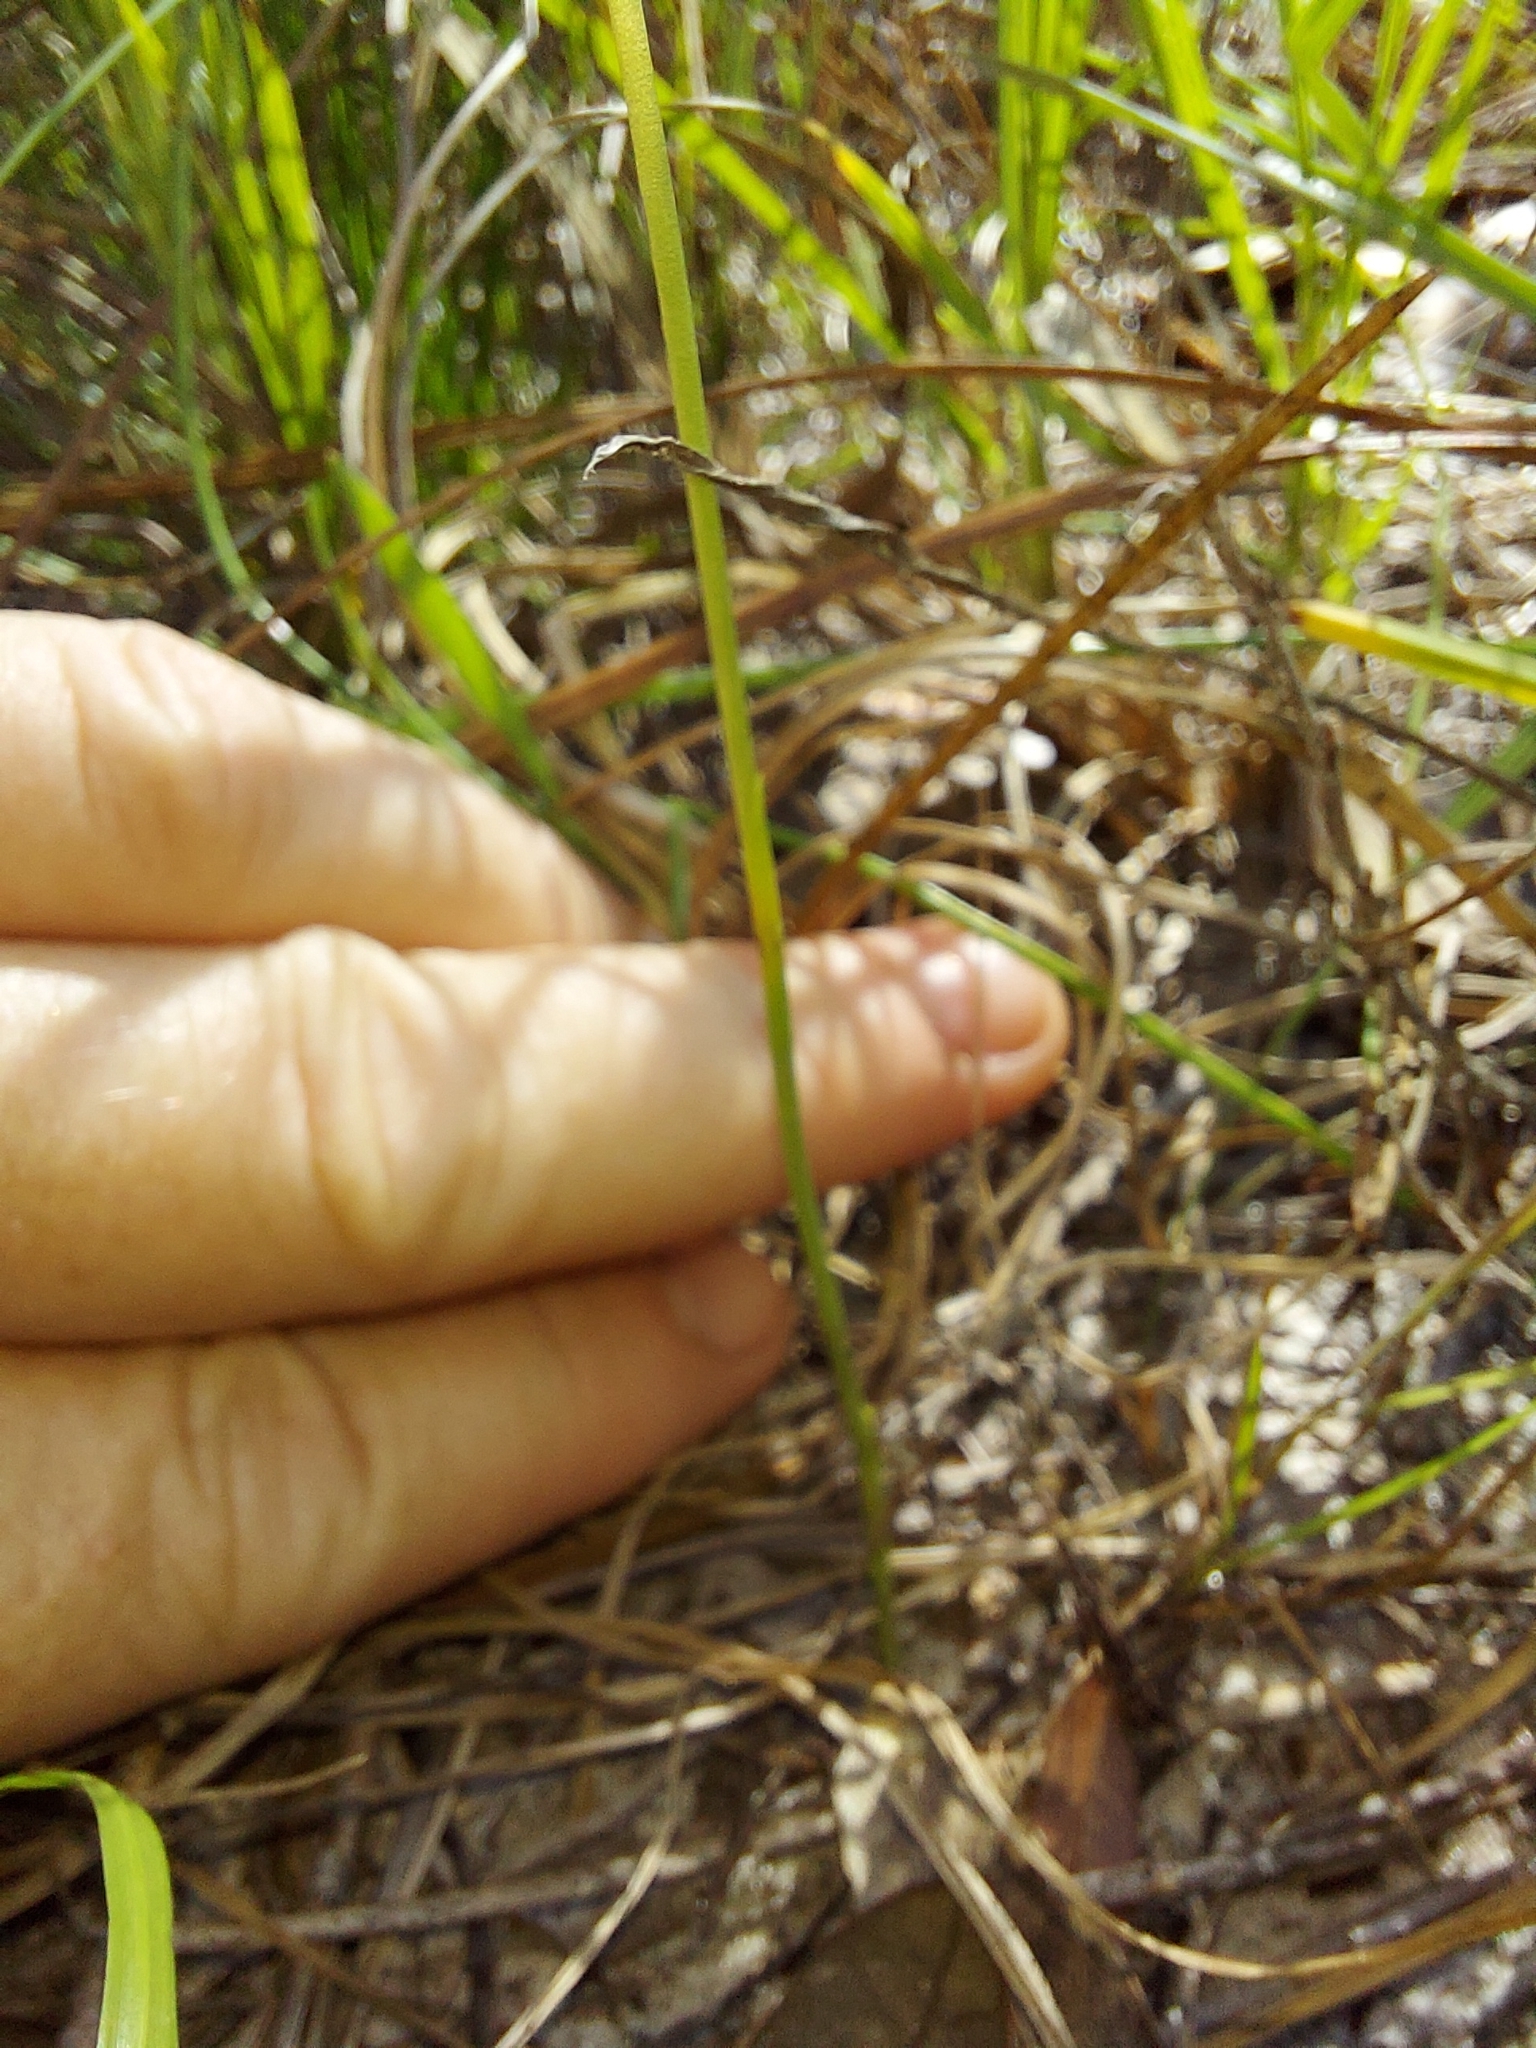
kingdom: Plantae
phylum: Tracheophyta
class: Liliopsida
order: Asparagales
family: Orchidaceae
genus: Spiranthes
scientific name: Spiranthes tuberosa
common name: Little ladies'-tresses
